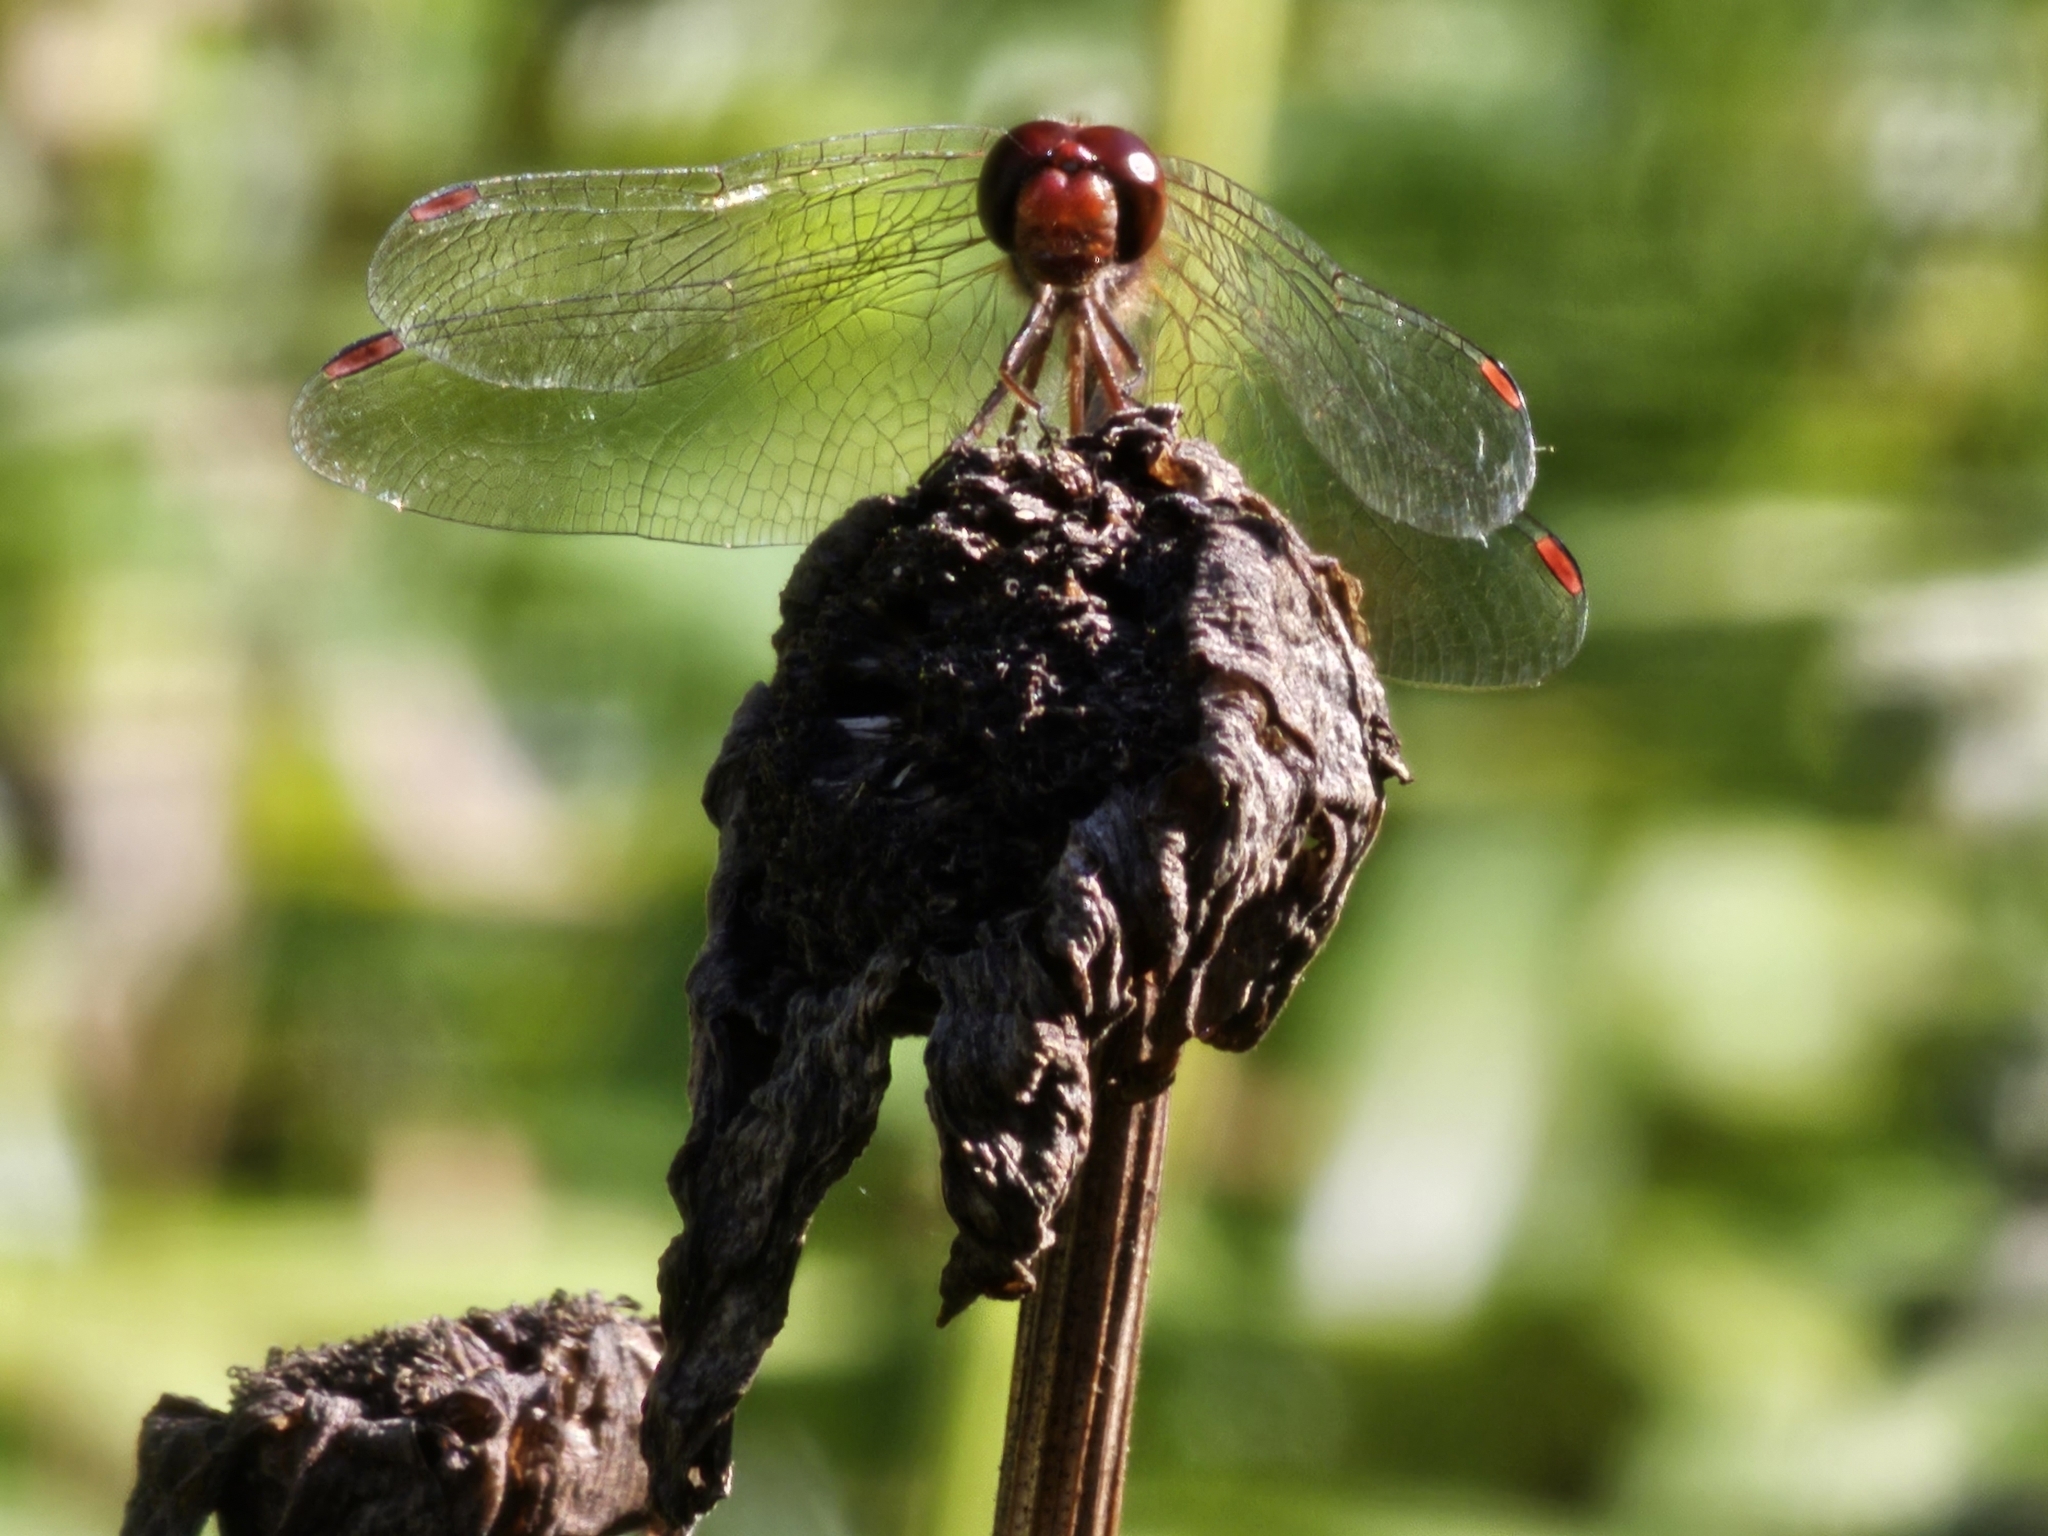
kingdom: Animalia
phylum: Arthropoda
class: Insecta
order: Odonata
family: Libellulidae
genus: Sympetrum
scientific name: Sympetrum vicinum
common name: Autumn meadowhawk
